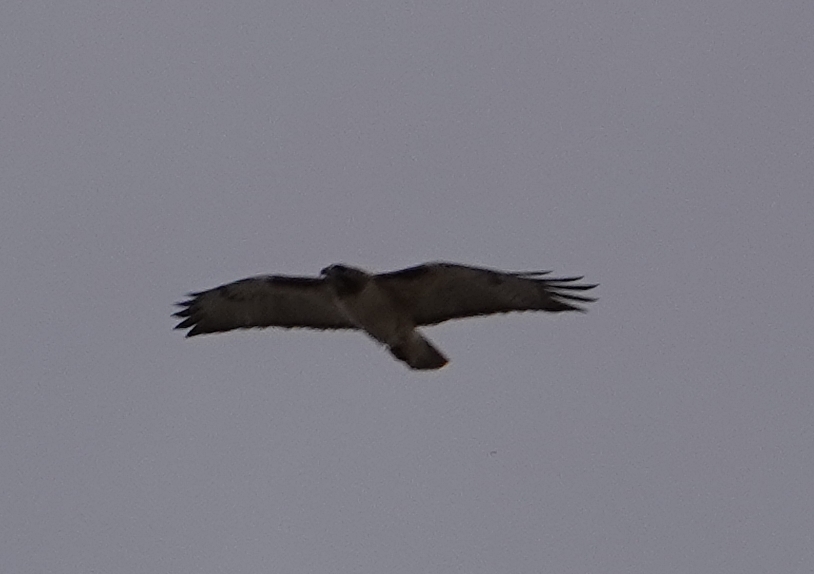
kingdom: Animalia
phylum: Chordata
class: Aves
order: Accipitriformes
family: Accipitridae
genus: Buteo
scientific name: Buteo jamaicensis
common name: Red-tailed hawk
